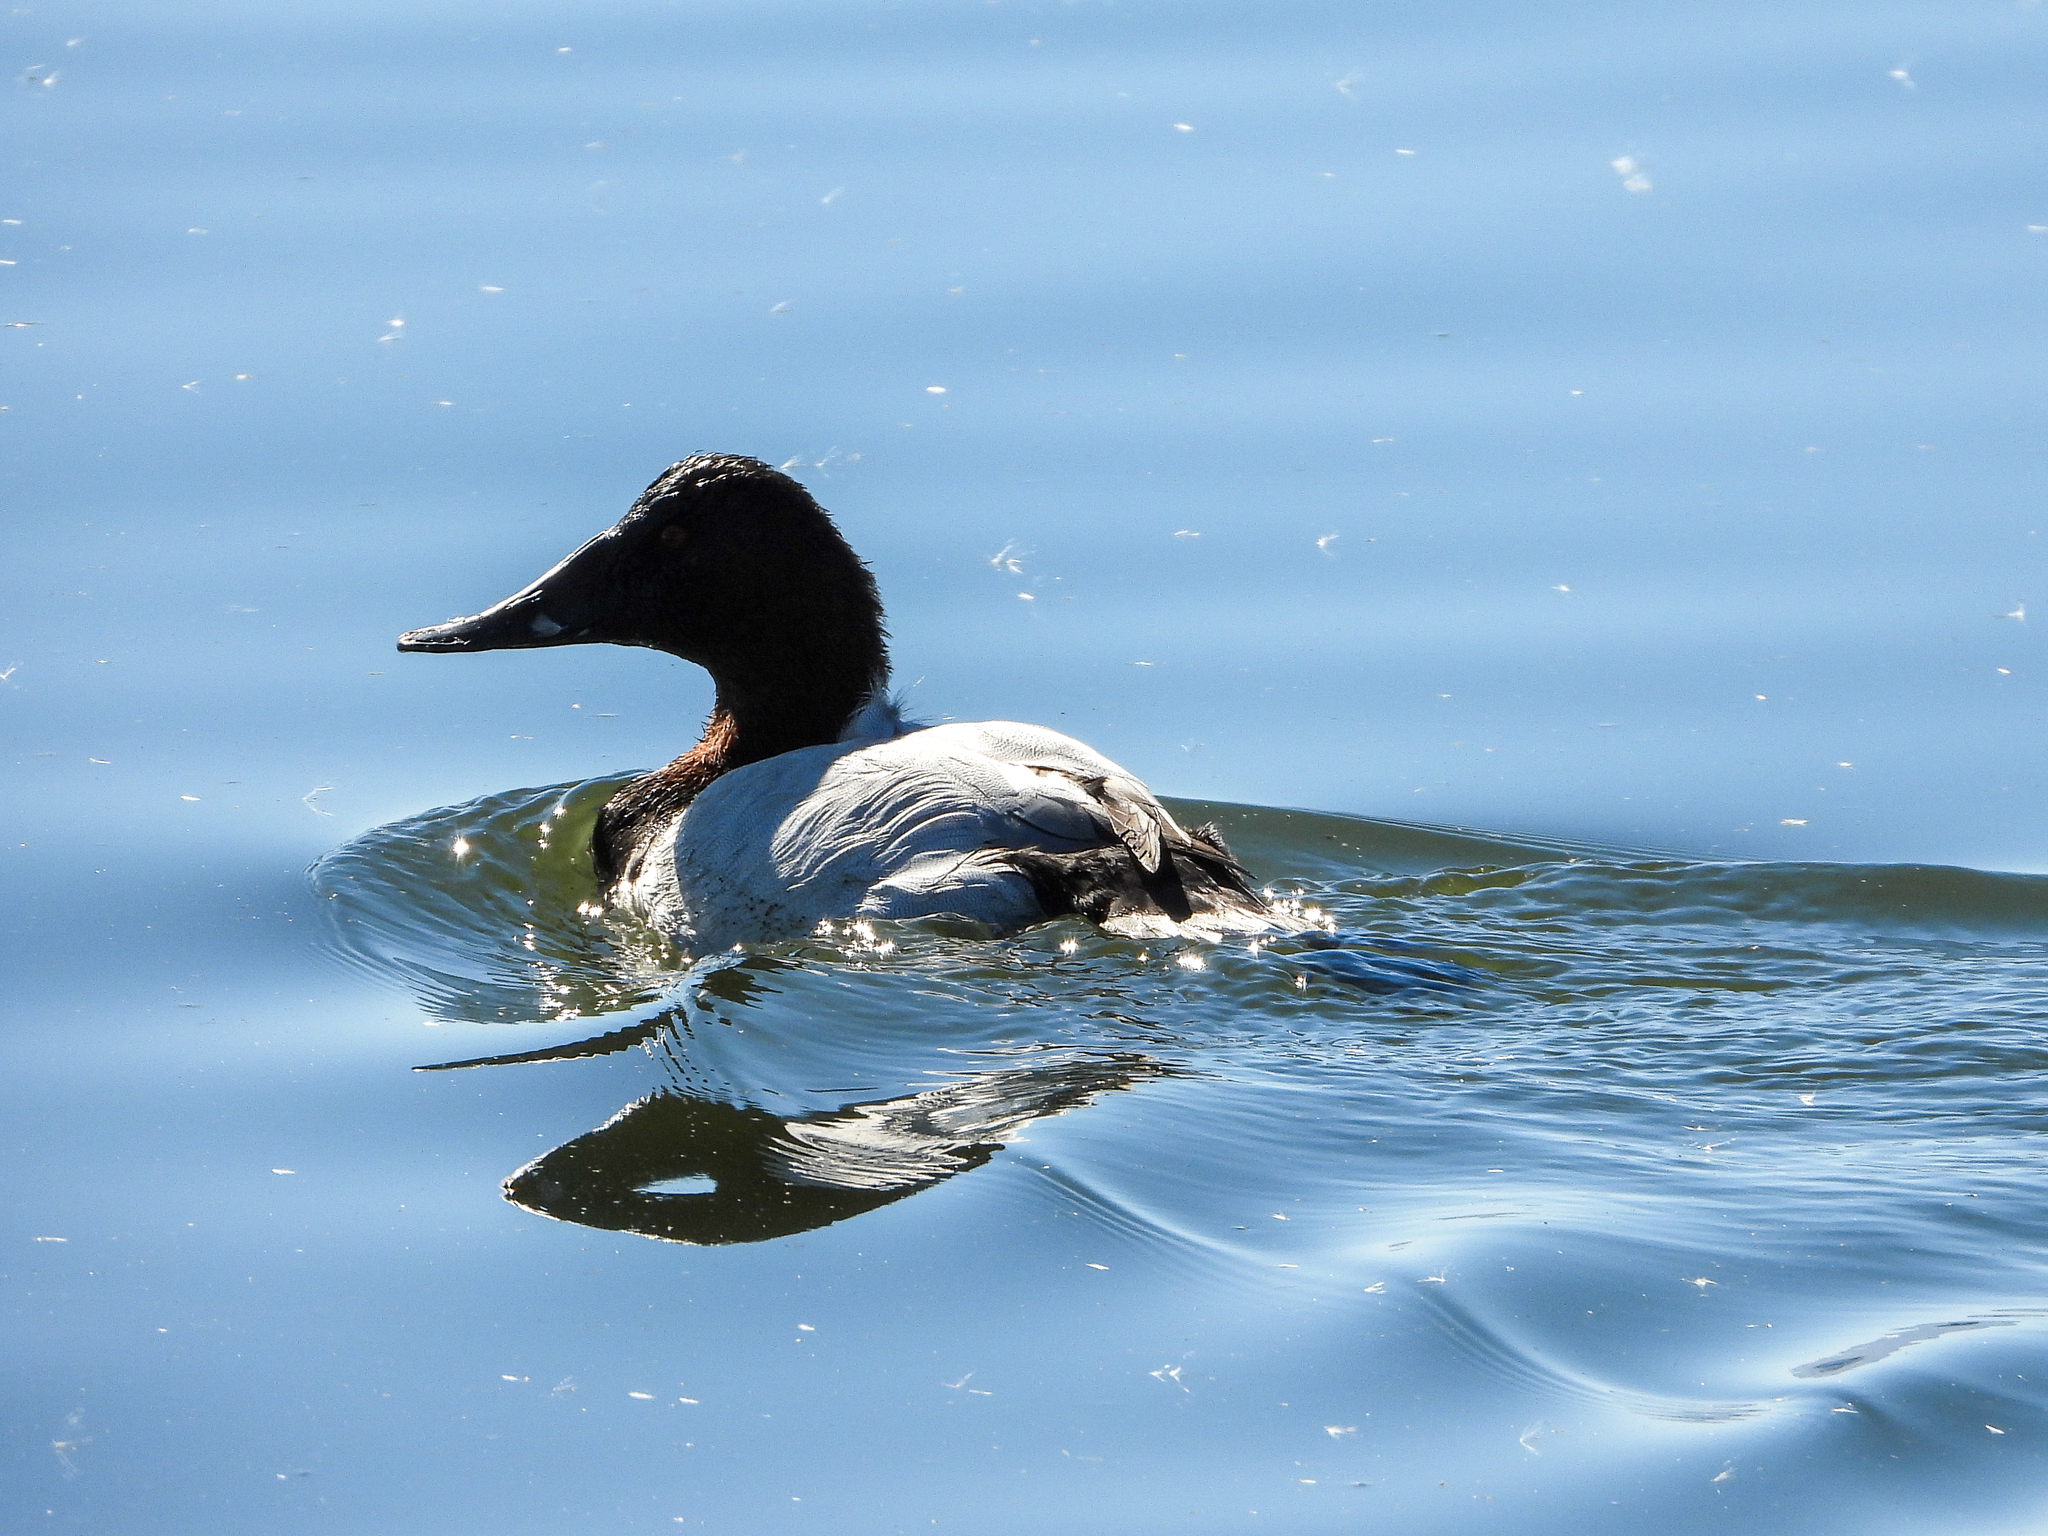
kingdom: Animalia
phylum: Chordata
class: Aves
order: Anseriformes
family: Anatidae
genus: Aythya
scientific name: Aythya valisineria
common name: Canvasback
